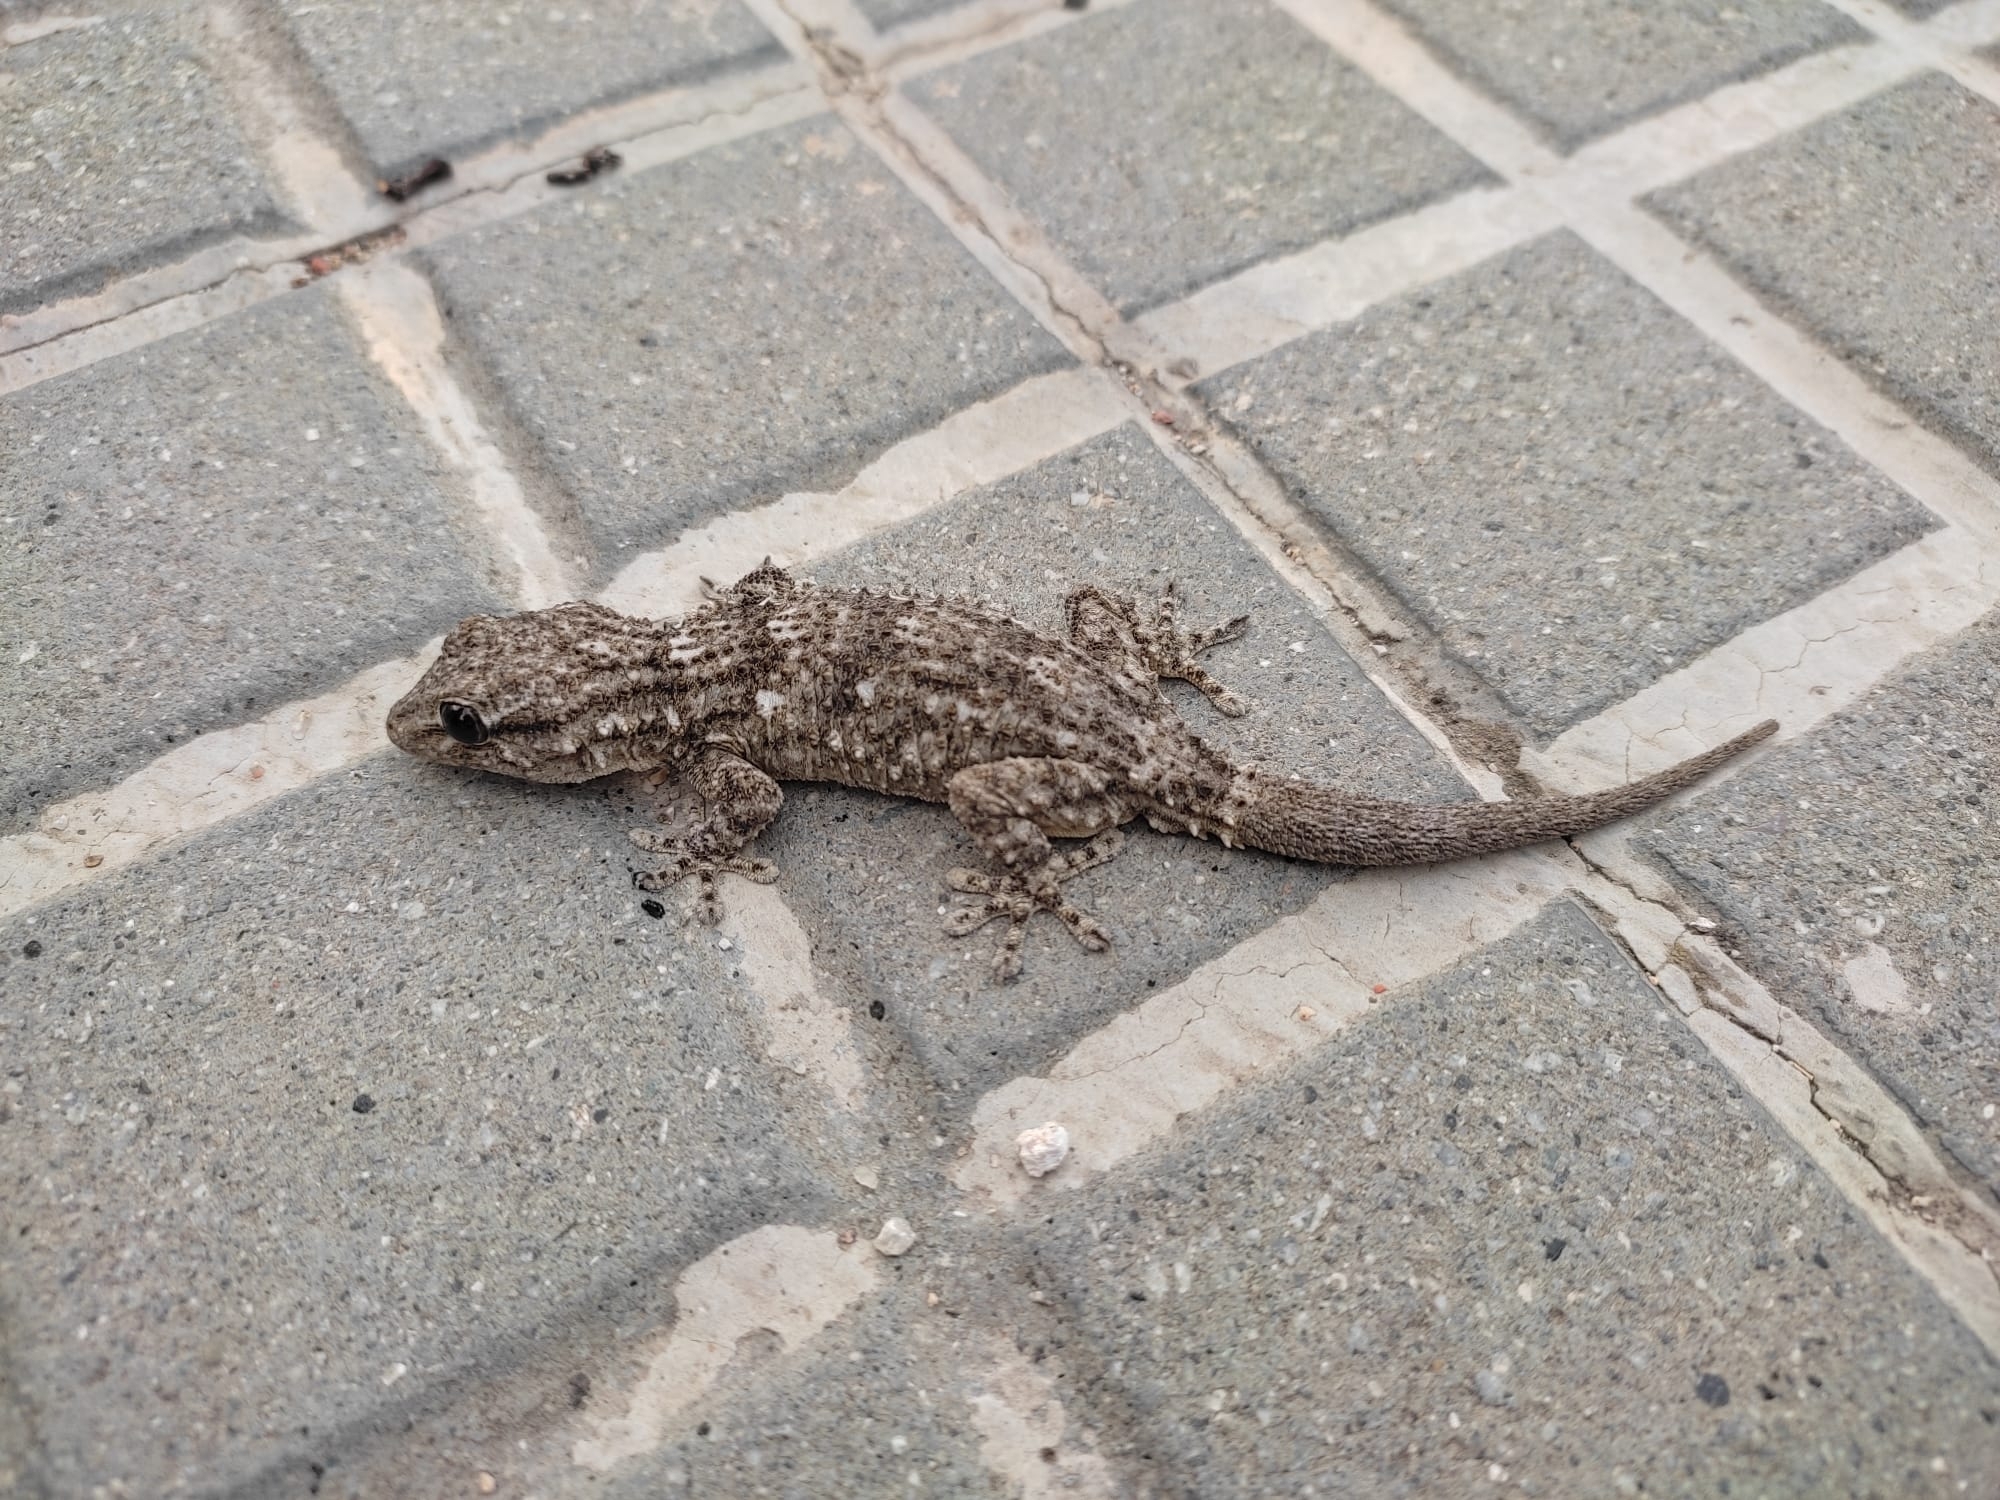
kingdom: Animalia
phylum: Chordata
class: Squamata
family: Phyllodactylidae
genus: Tarentola
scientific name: Tarentola mauritanica
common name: Moorish gecko
